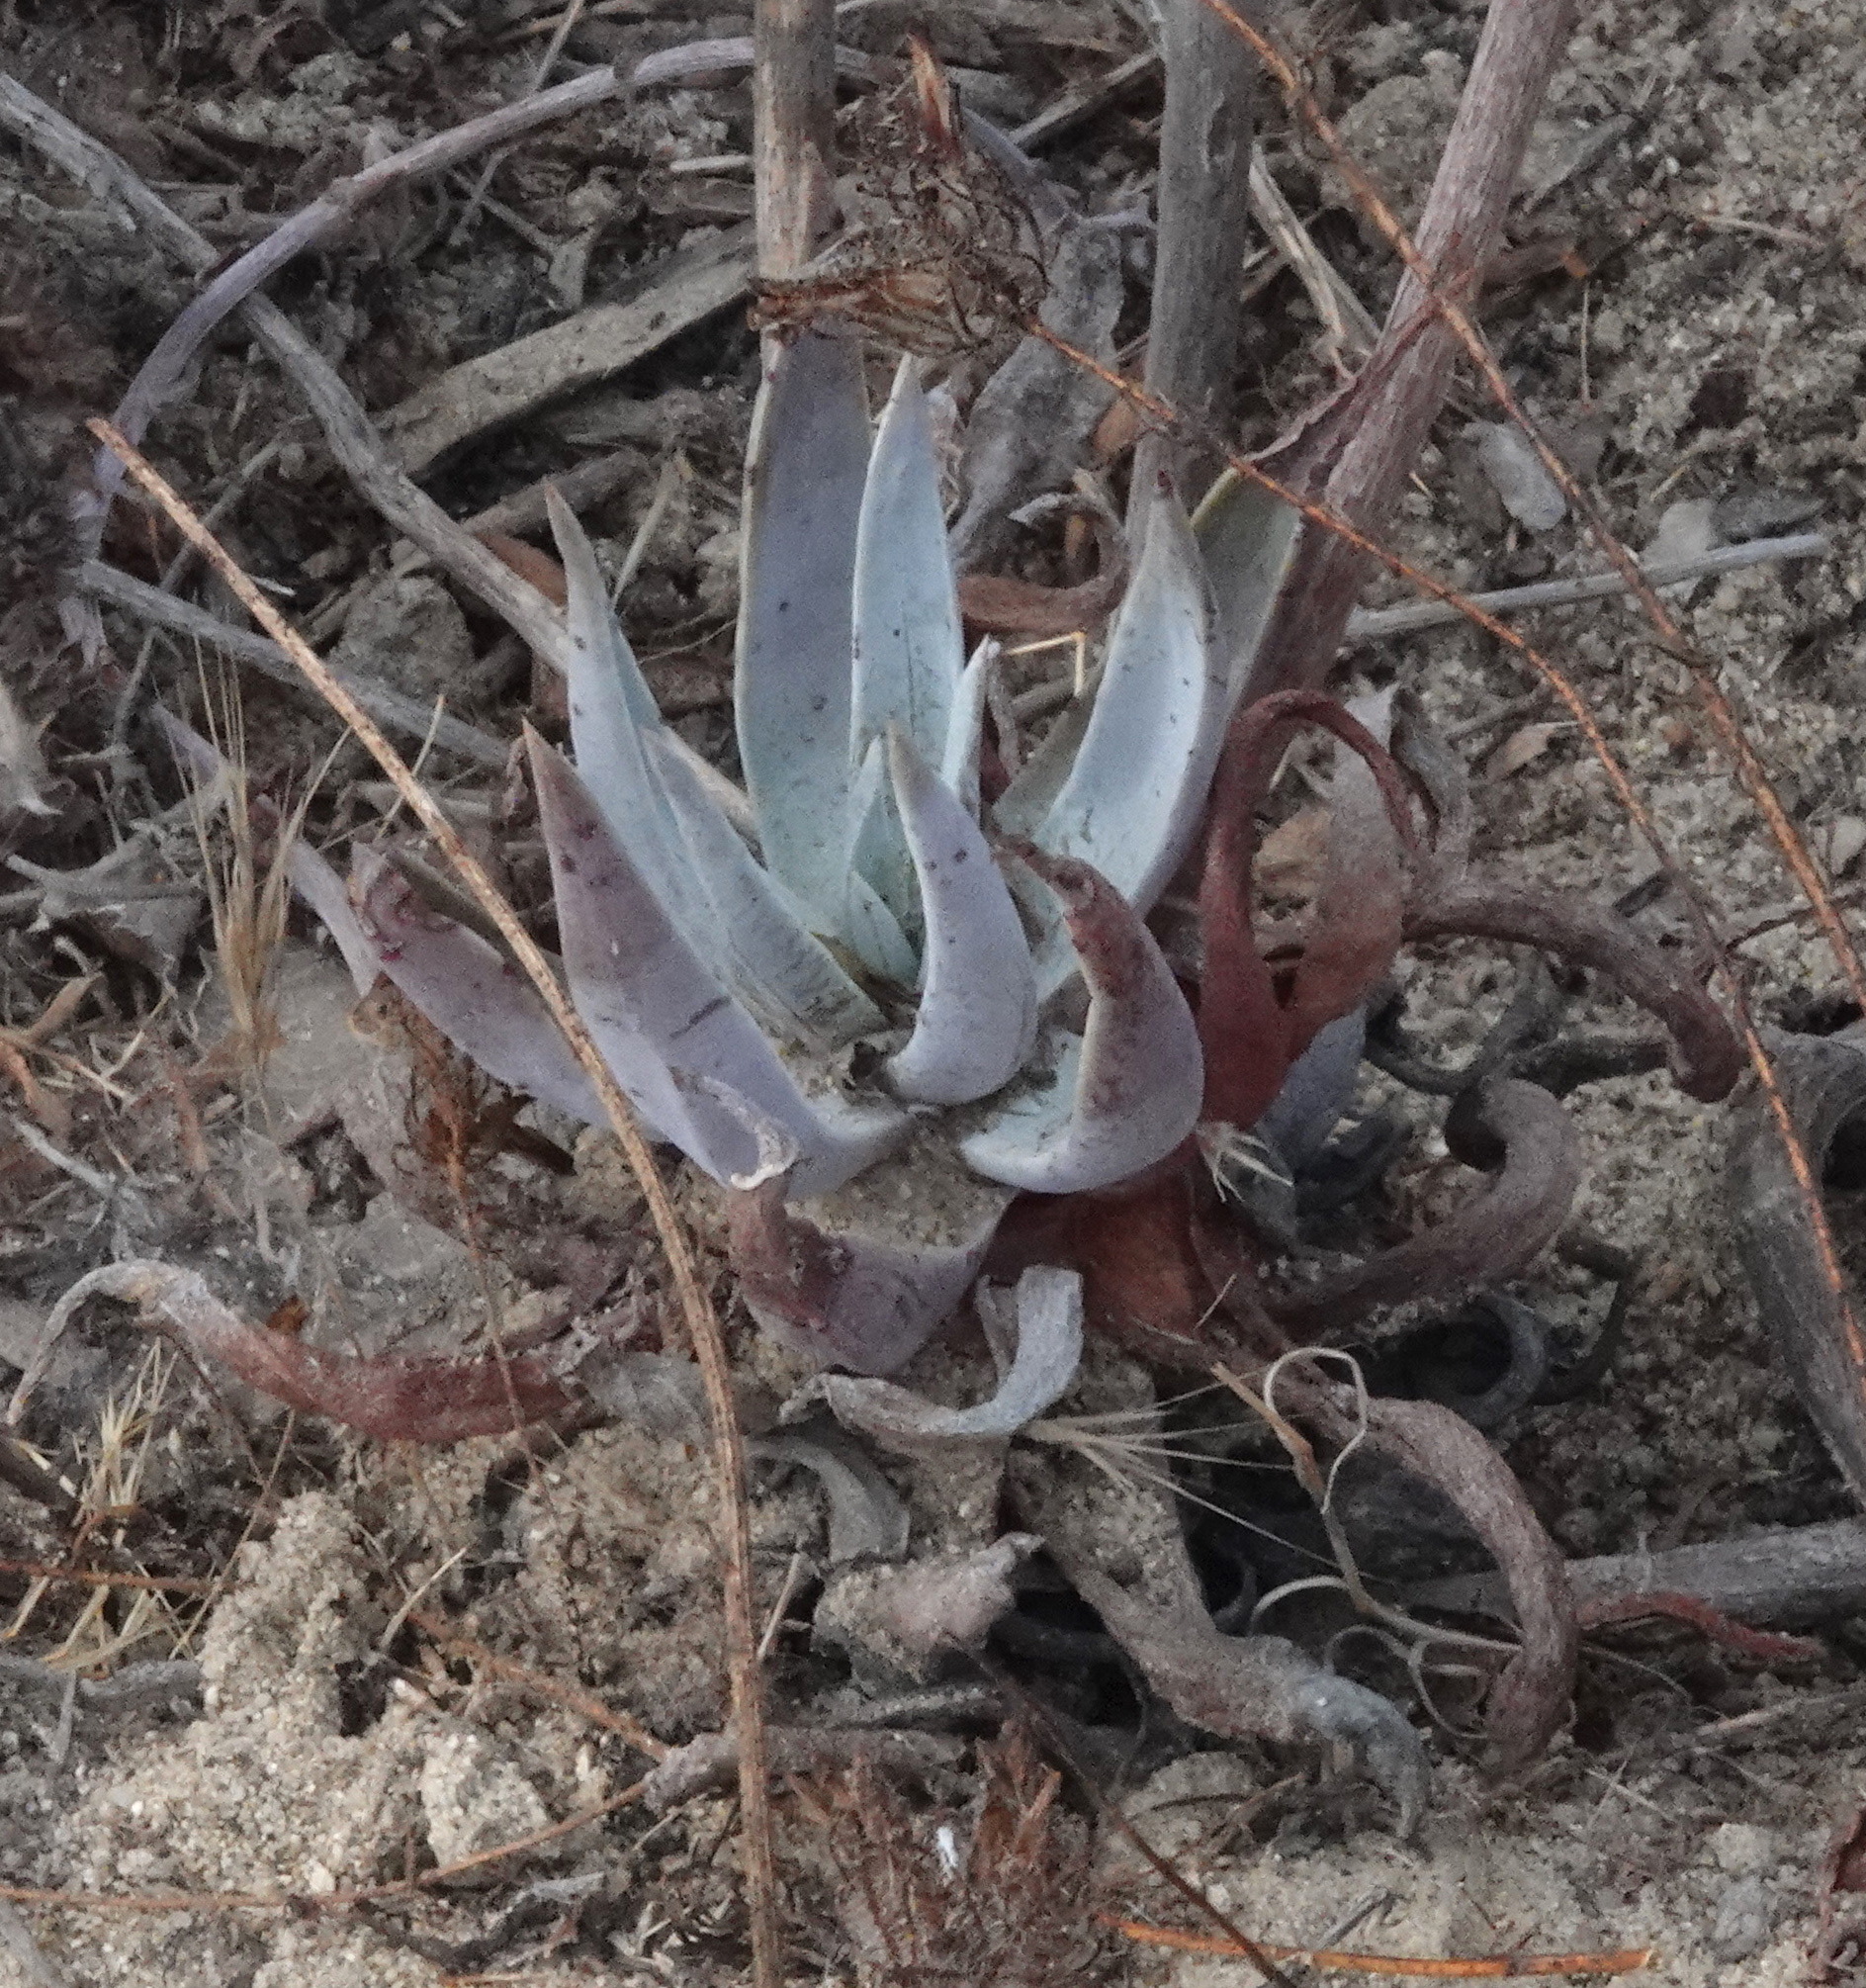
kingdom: Plantae
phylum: Tracheophyta
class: Magnoliopsida
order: Saxifragales
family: Crassulaceae
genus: Dudleya
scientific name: Dudleya lanceolata
